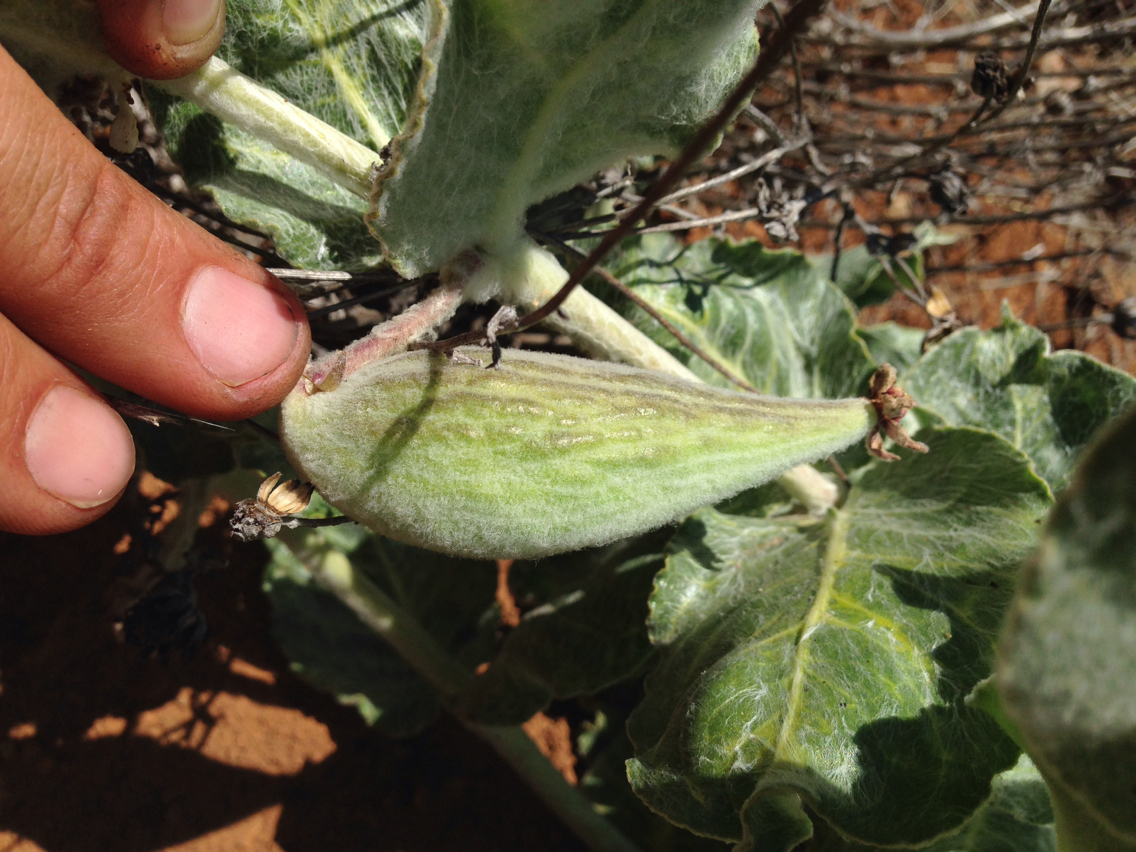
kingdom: Plantae
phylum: Tracheophyta
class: Magnoliopsida
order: Gentianales
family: Apocynaceae
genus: Asclepias
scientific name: Asclepias californica
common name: California milkweed
